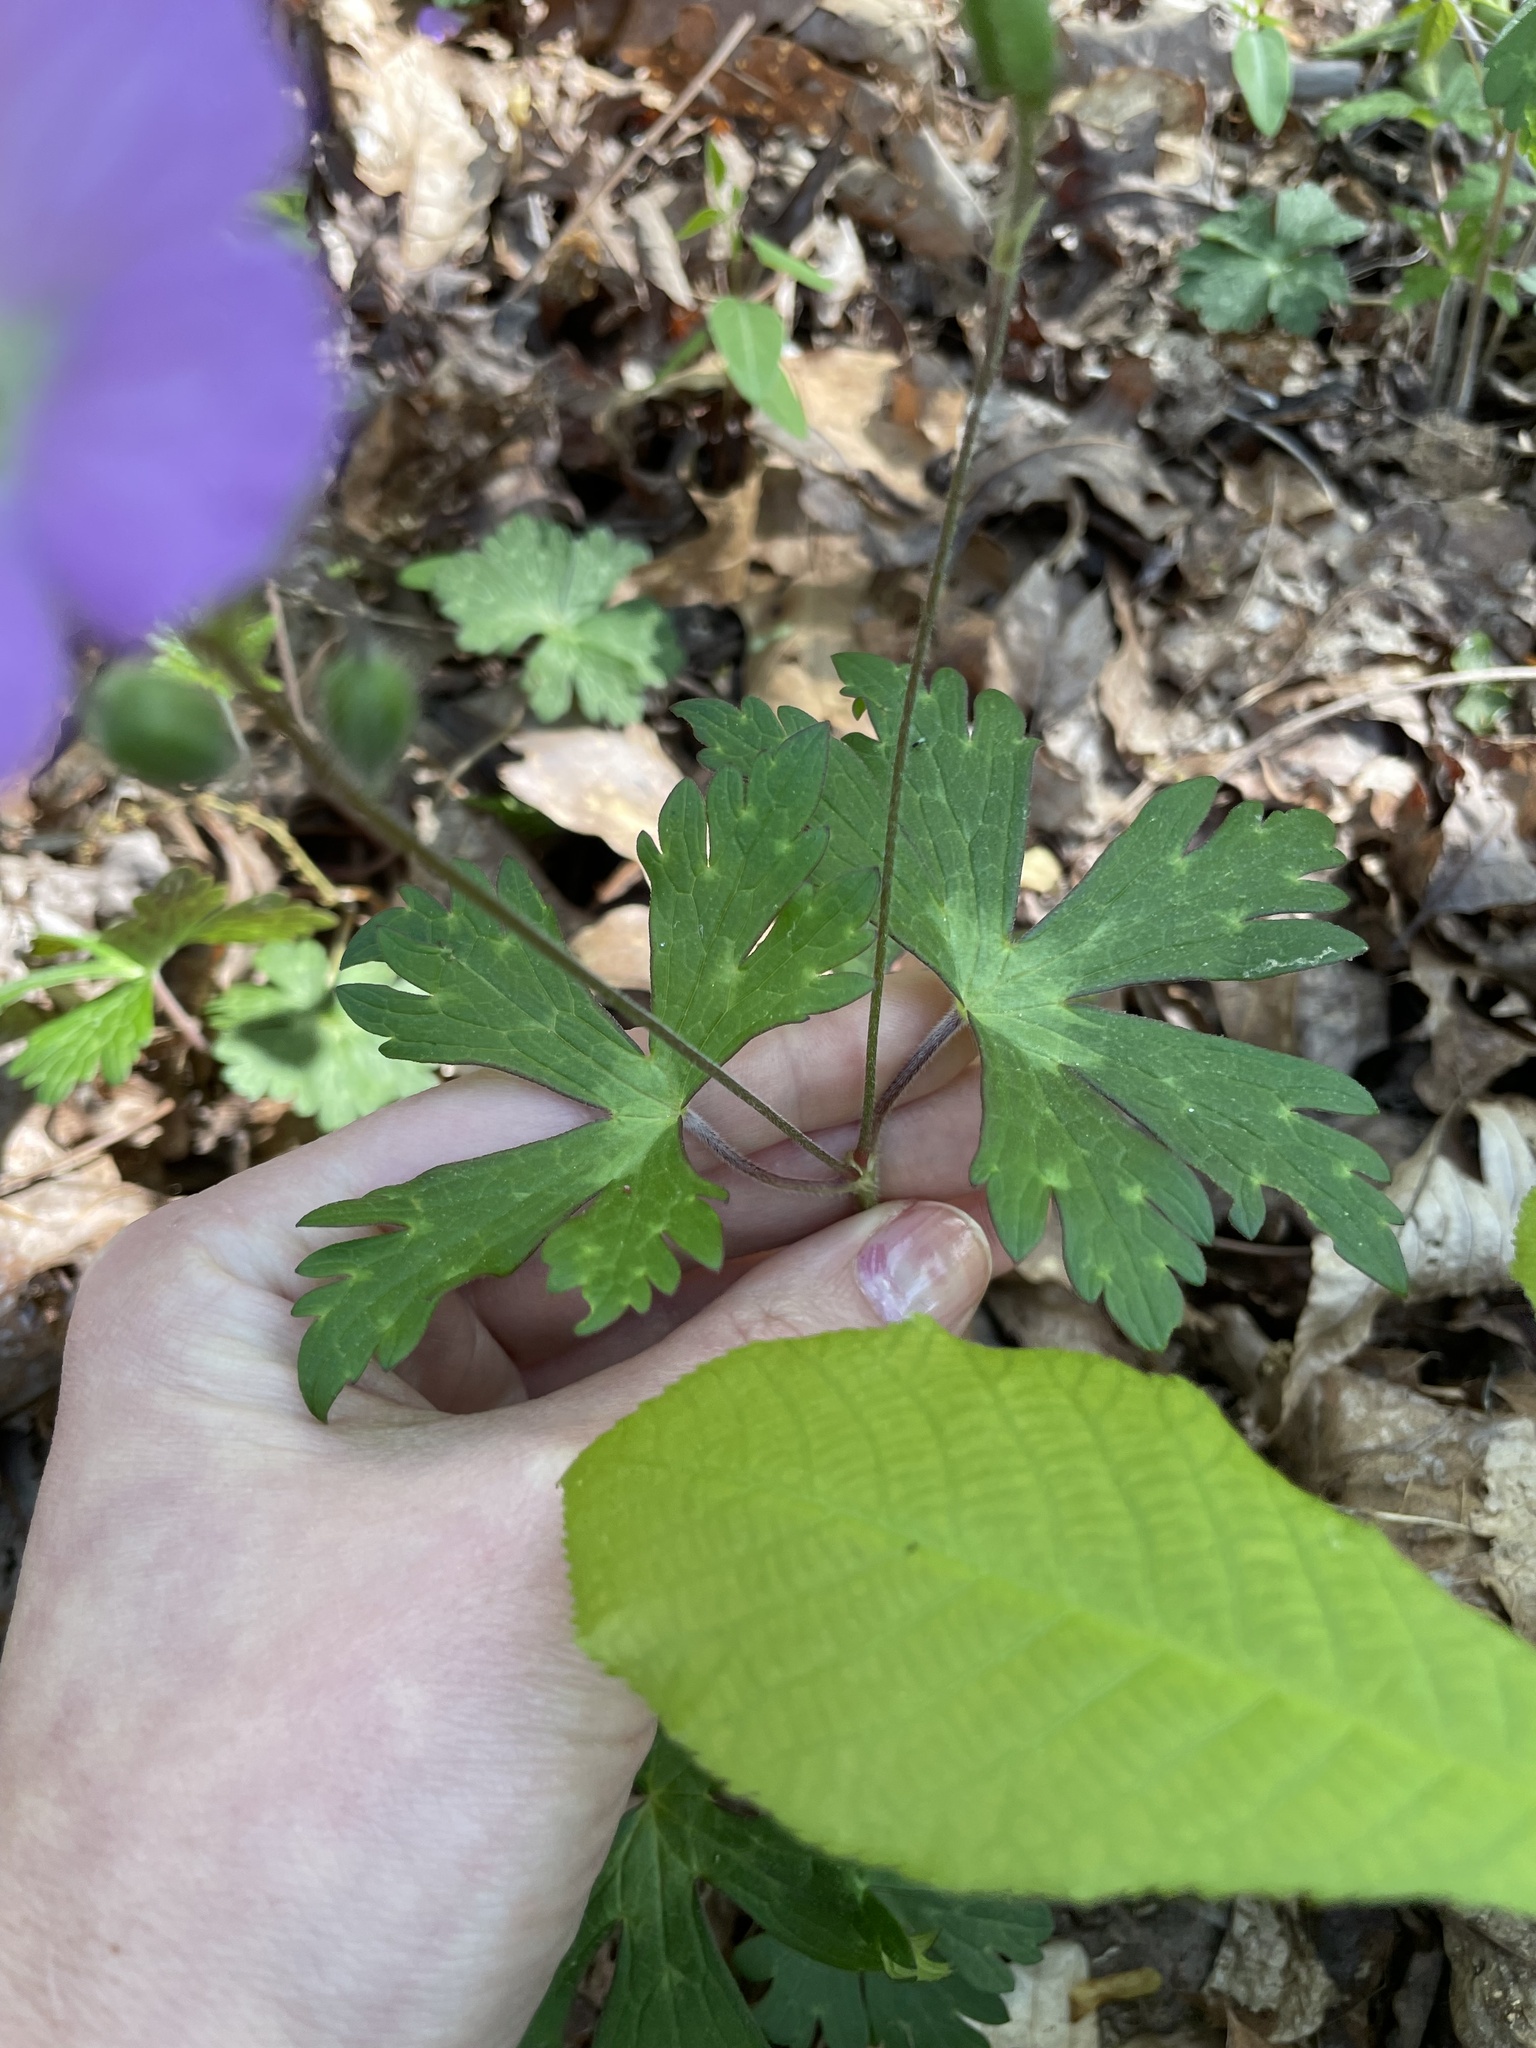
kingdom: Plantae
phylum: Tracheophyta
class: Magnoliopsida
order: Geraniales
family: Geraniaceae
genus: Geranium
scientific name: Geranium maculatum
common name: Spotted geranium
